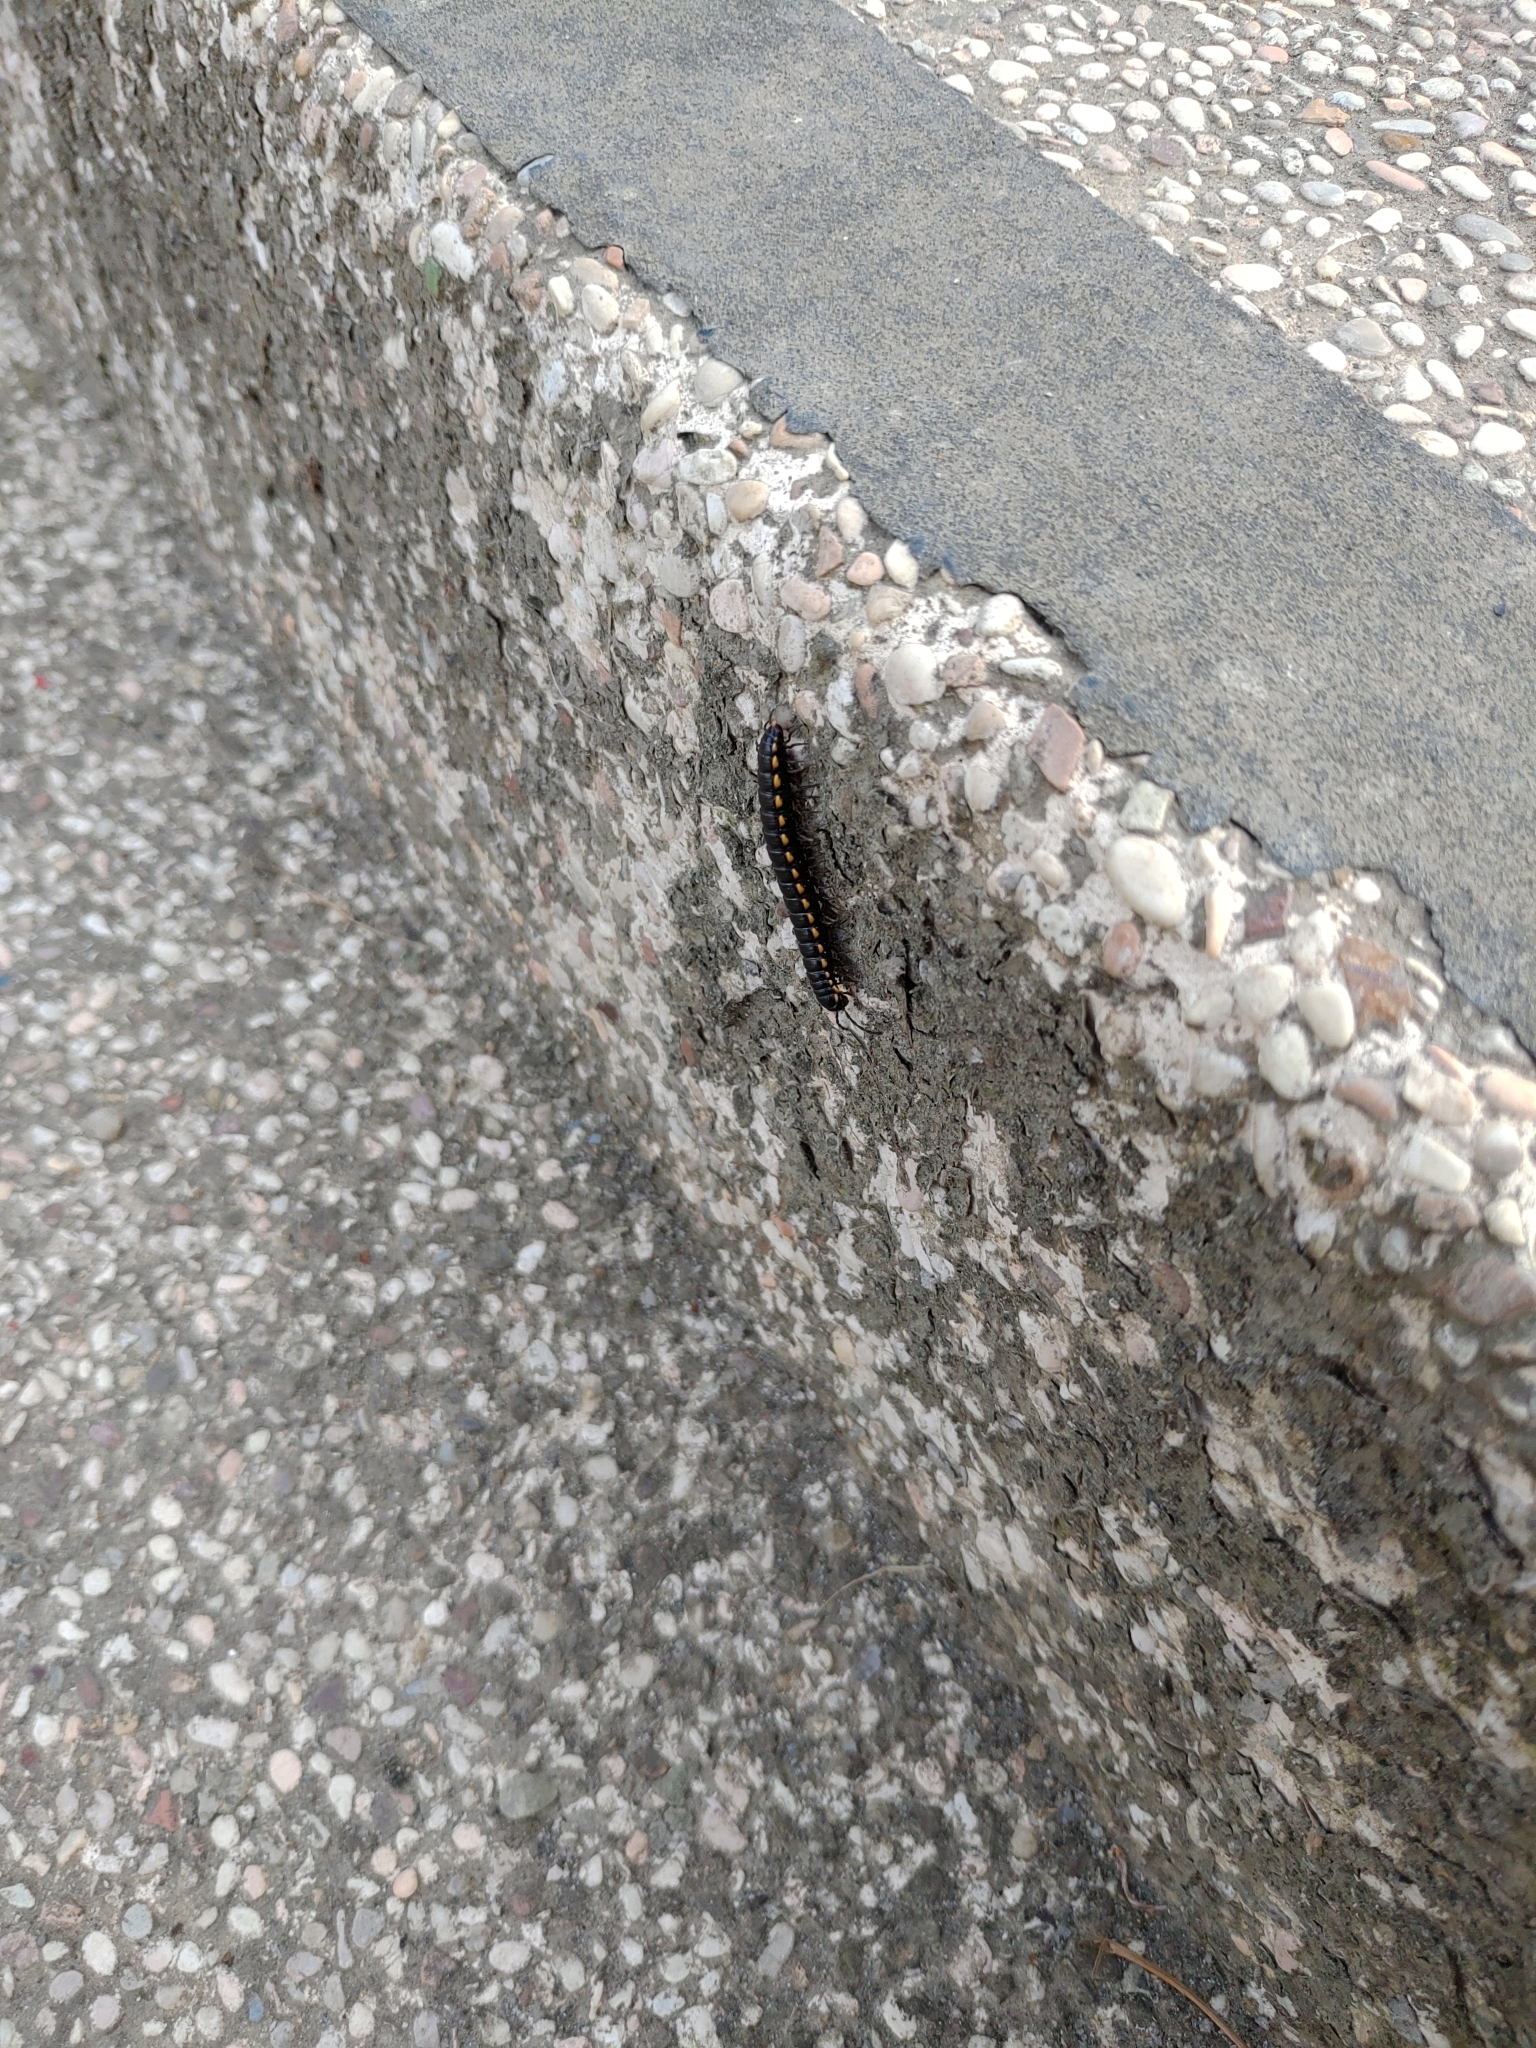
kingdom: Animalia
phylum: Arthropoda
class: Diplopoda
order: Polydesmida
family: Paradoxosomatidae
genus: Orthomorphella
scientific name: Orthomorphella pekuensis
